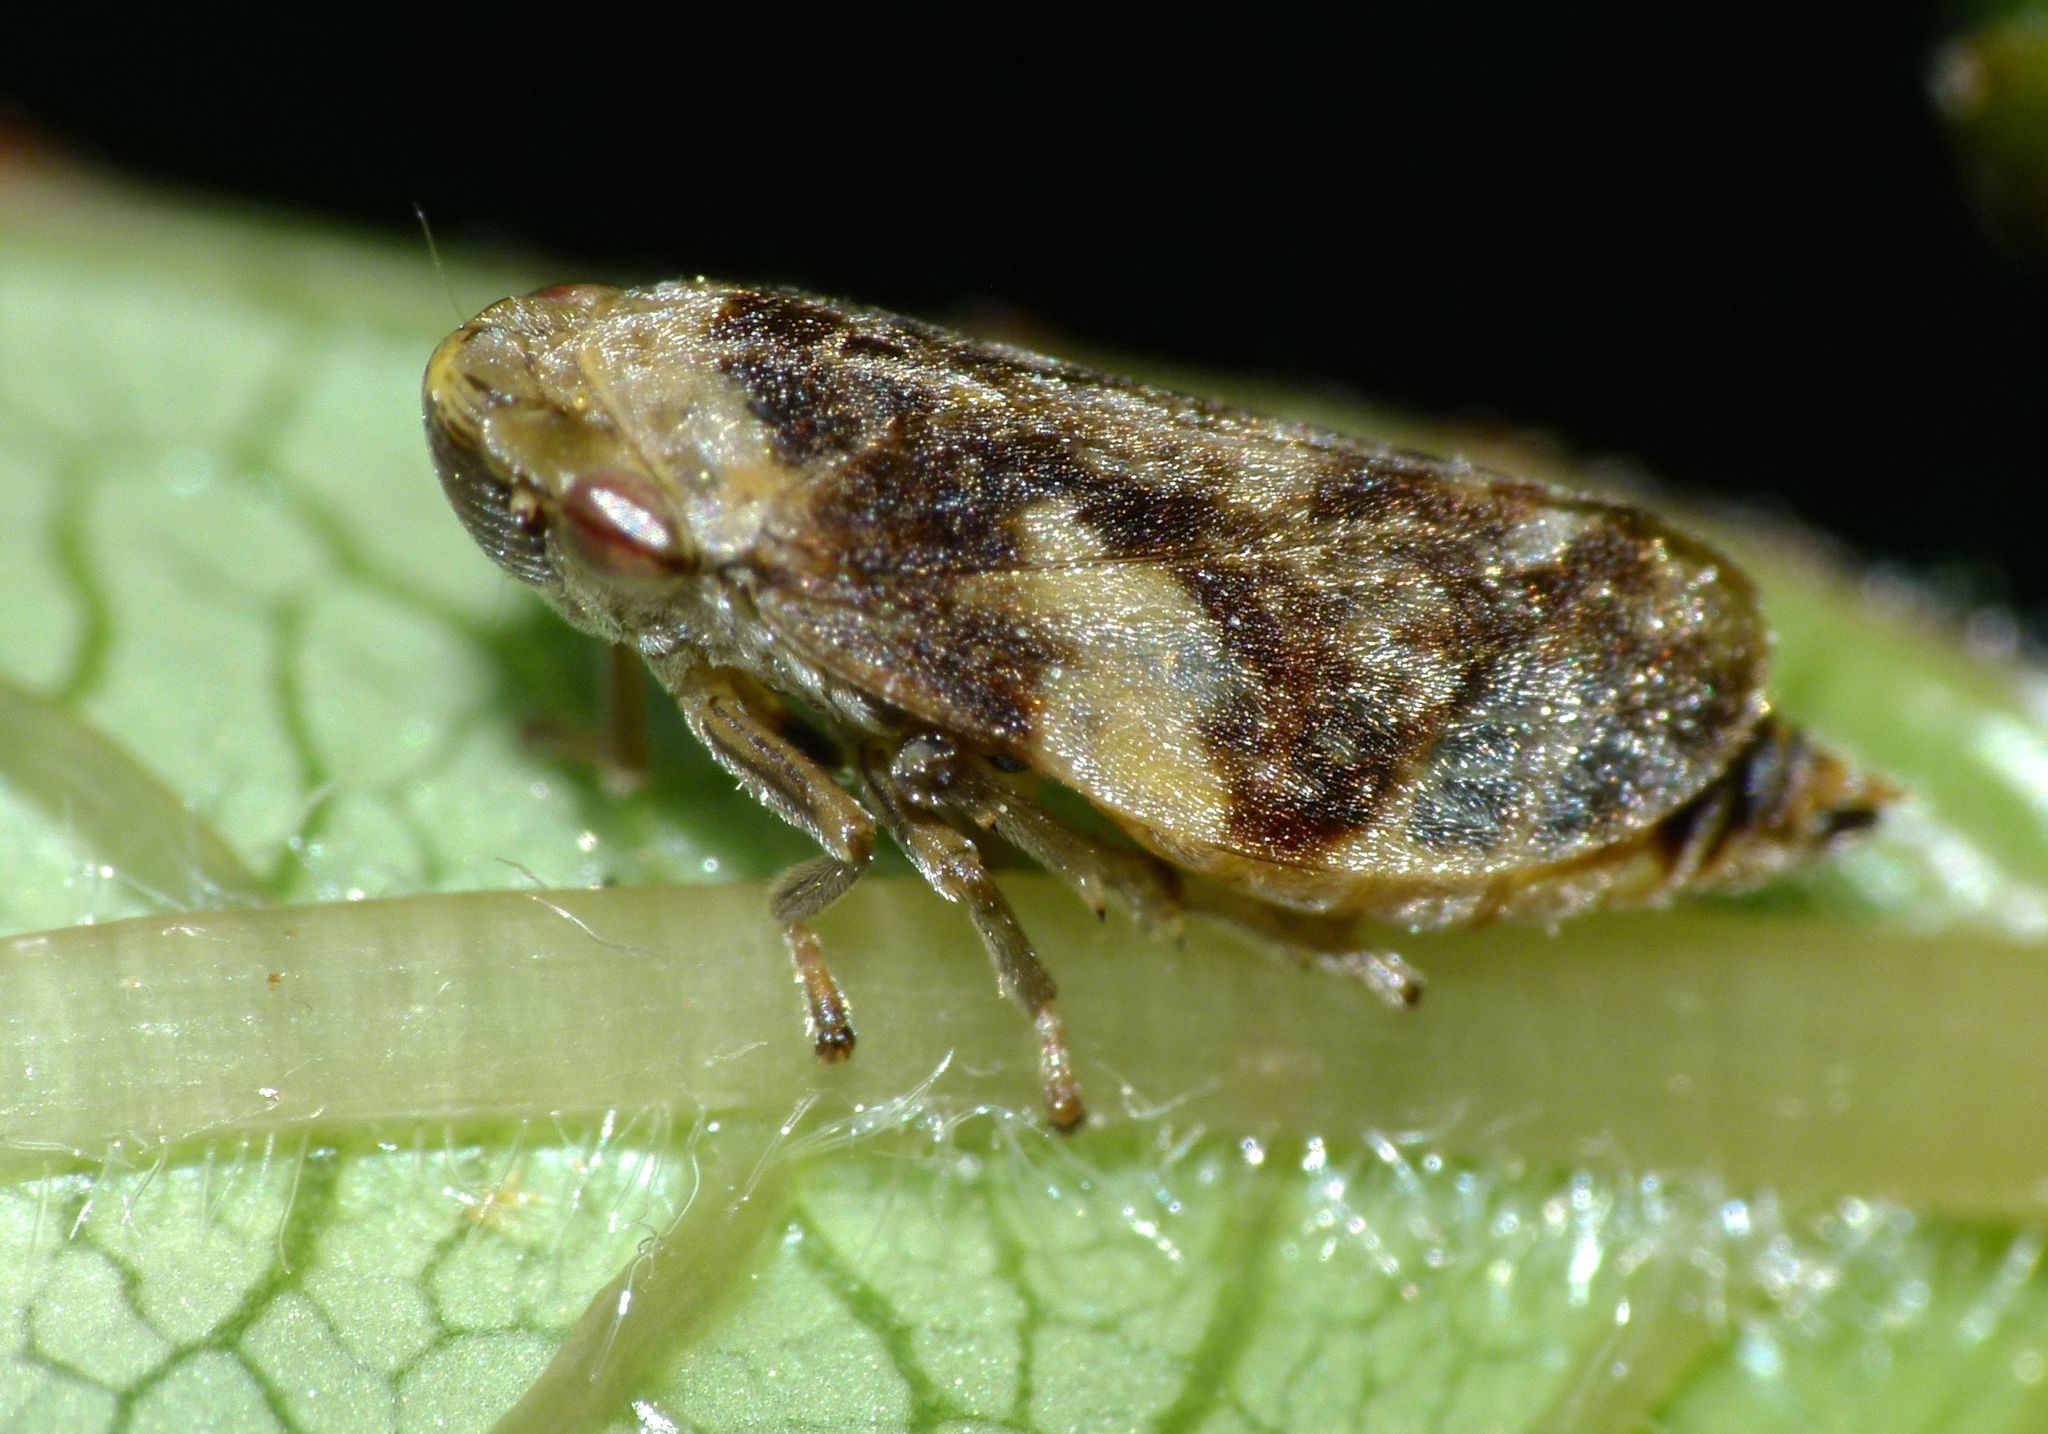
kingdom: Animalia
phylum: Arthropoda
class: Insecta
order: Hemiptera
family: Aphrophoridae
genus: Philaenus
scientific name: Philaenus spumarius
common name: Meadow spittlebug
